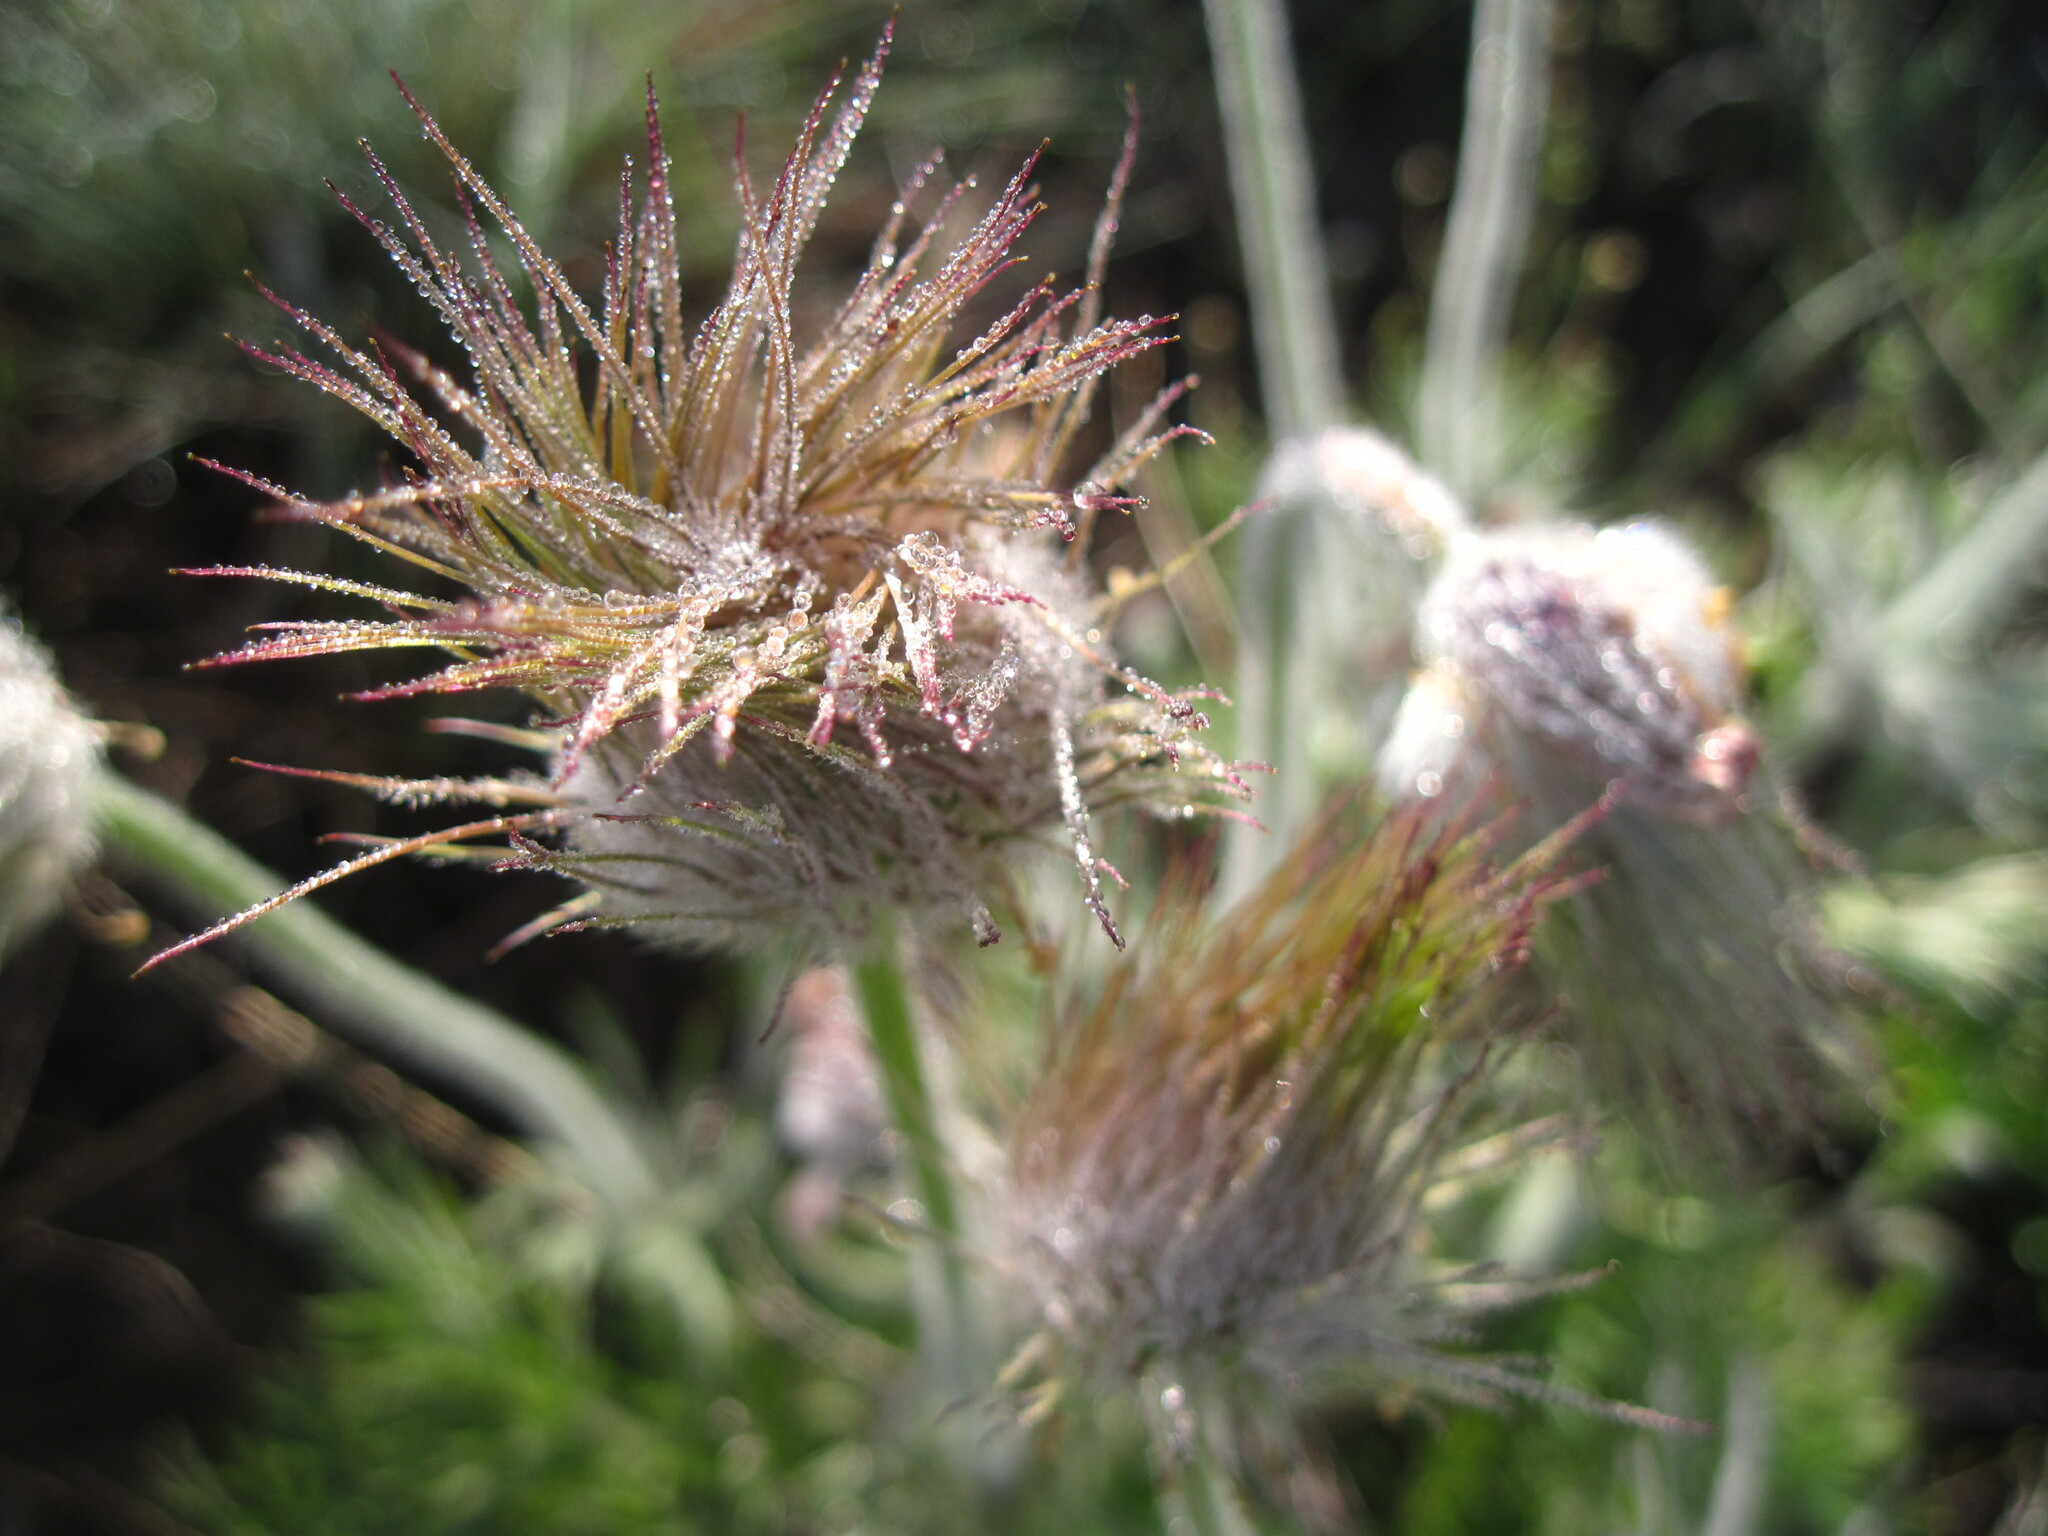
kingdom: Plantae
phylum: Tracheophyta
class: Magnoliopsida
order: Ranunculales
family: Ranunculaceae
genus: Pulsatilla
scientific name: Pulsatilla pratensis
